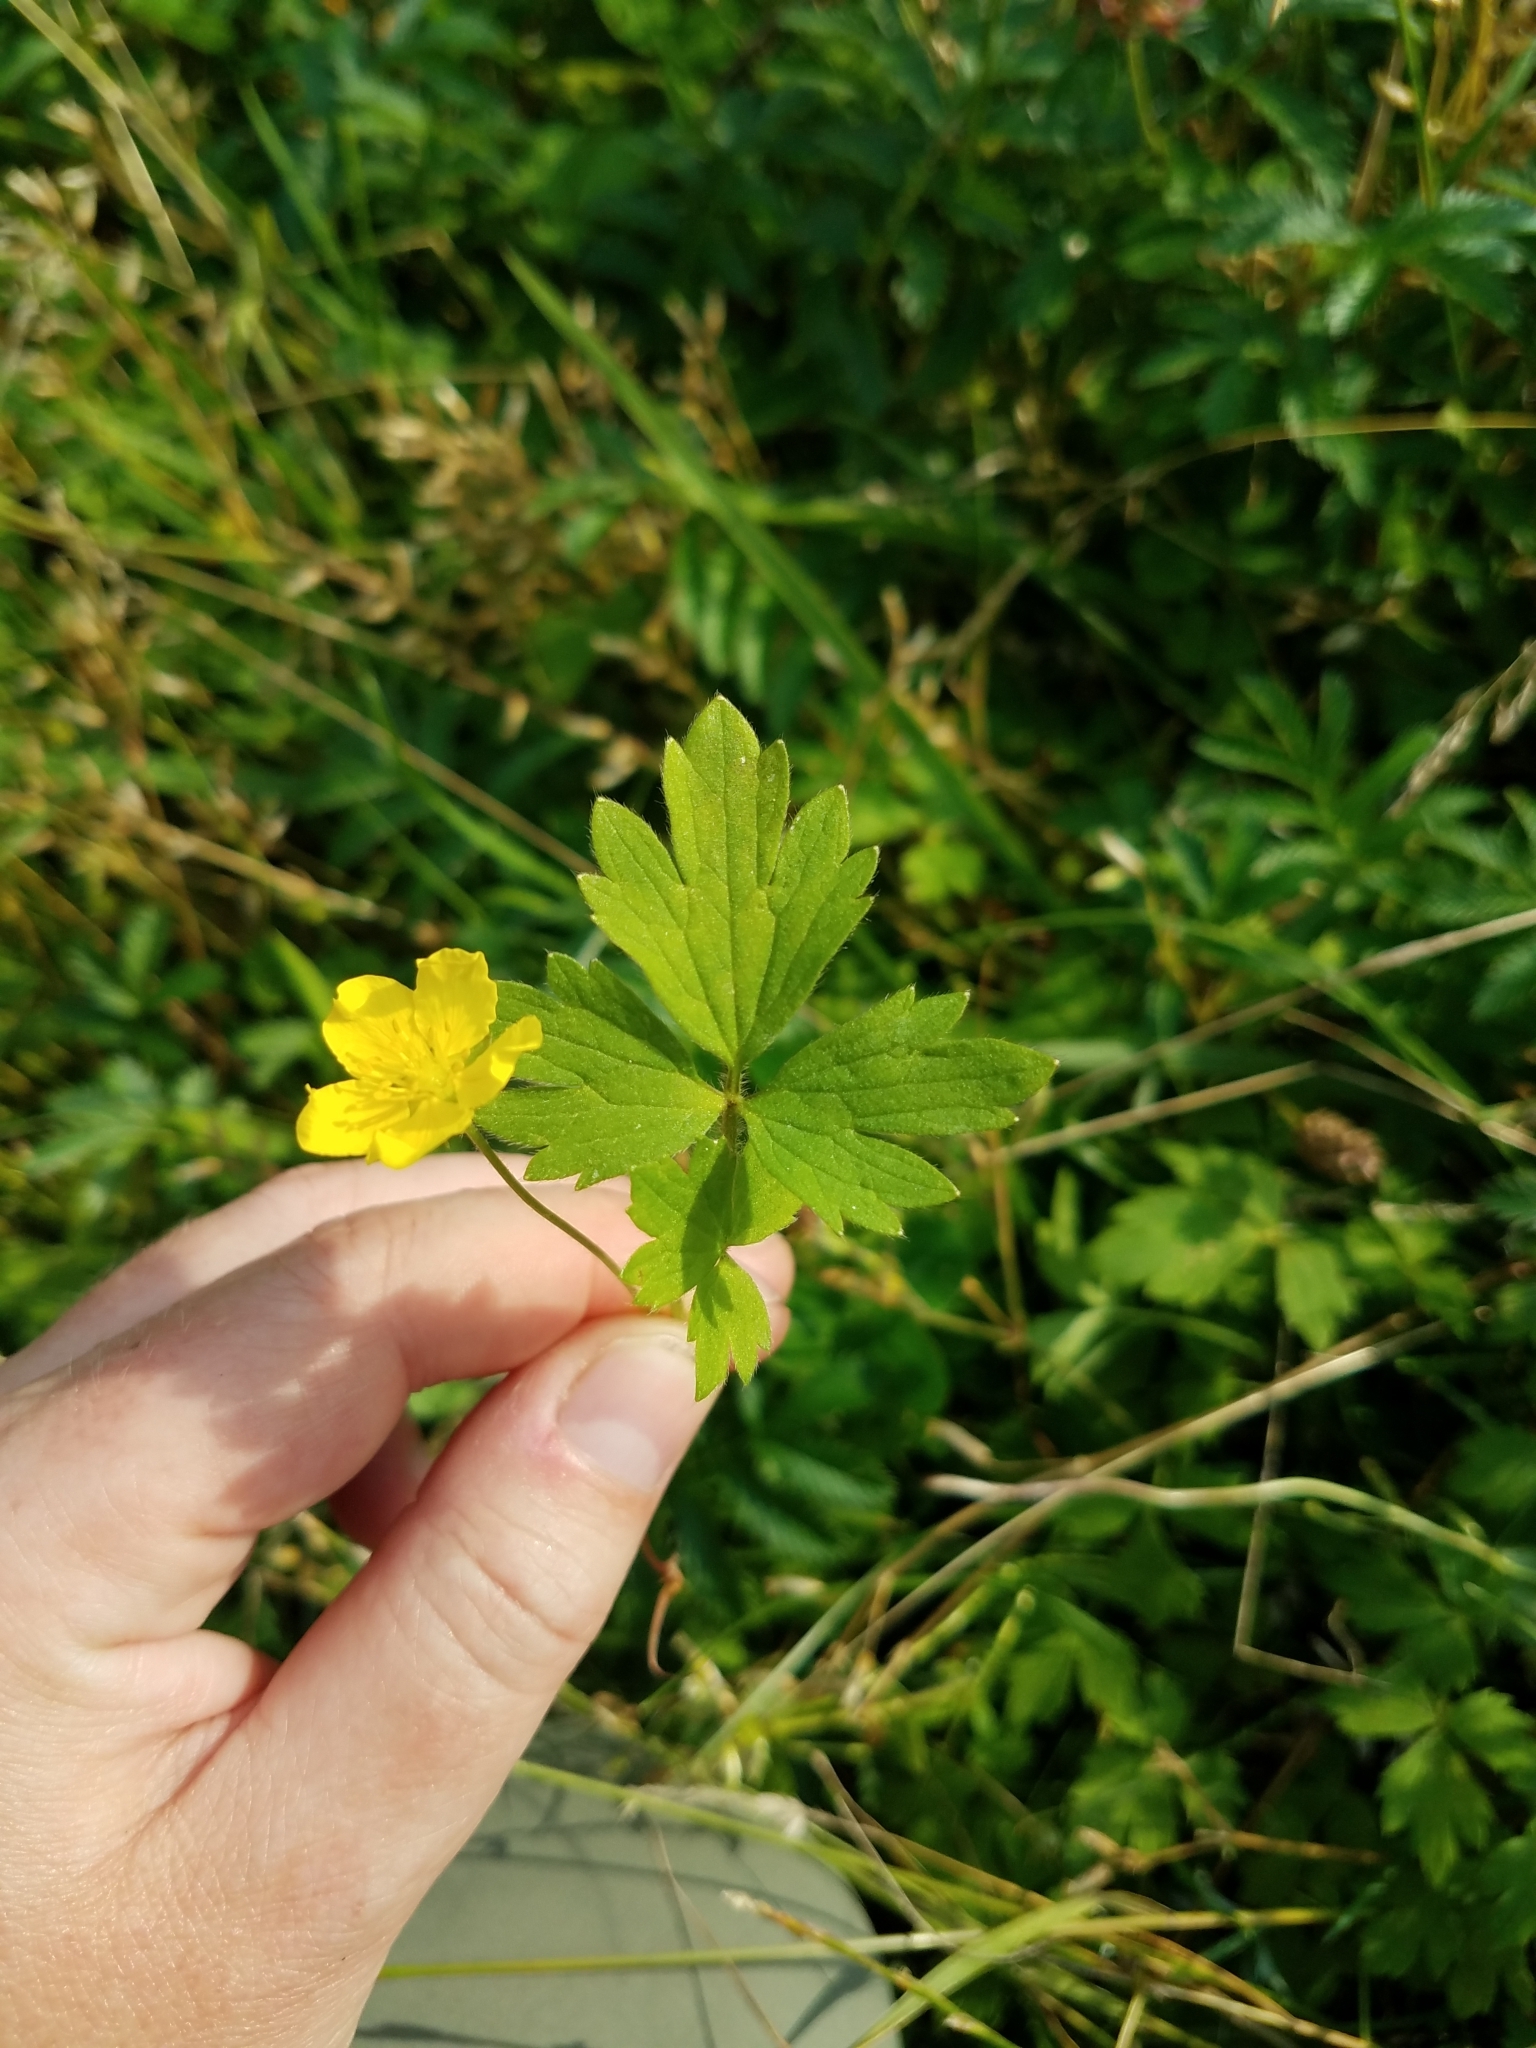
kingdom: Plantae
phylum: Tracheophyta
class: Magnoliopsida
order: Ranunculales
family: Ranunculaceae
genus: Ranunculus
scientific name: Ranunculus repens
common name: Creeping buttercup
